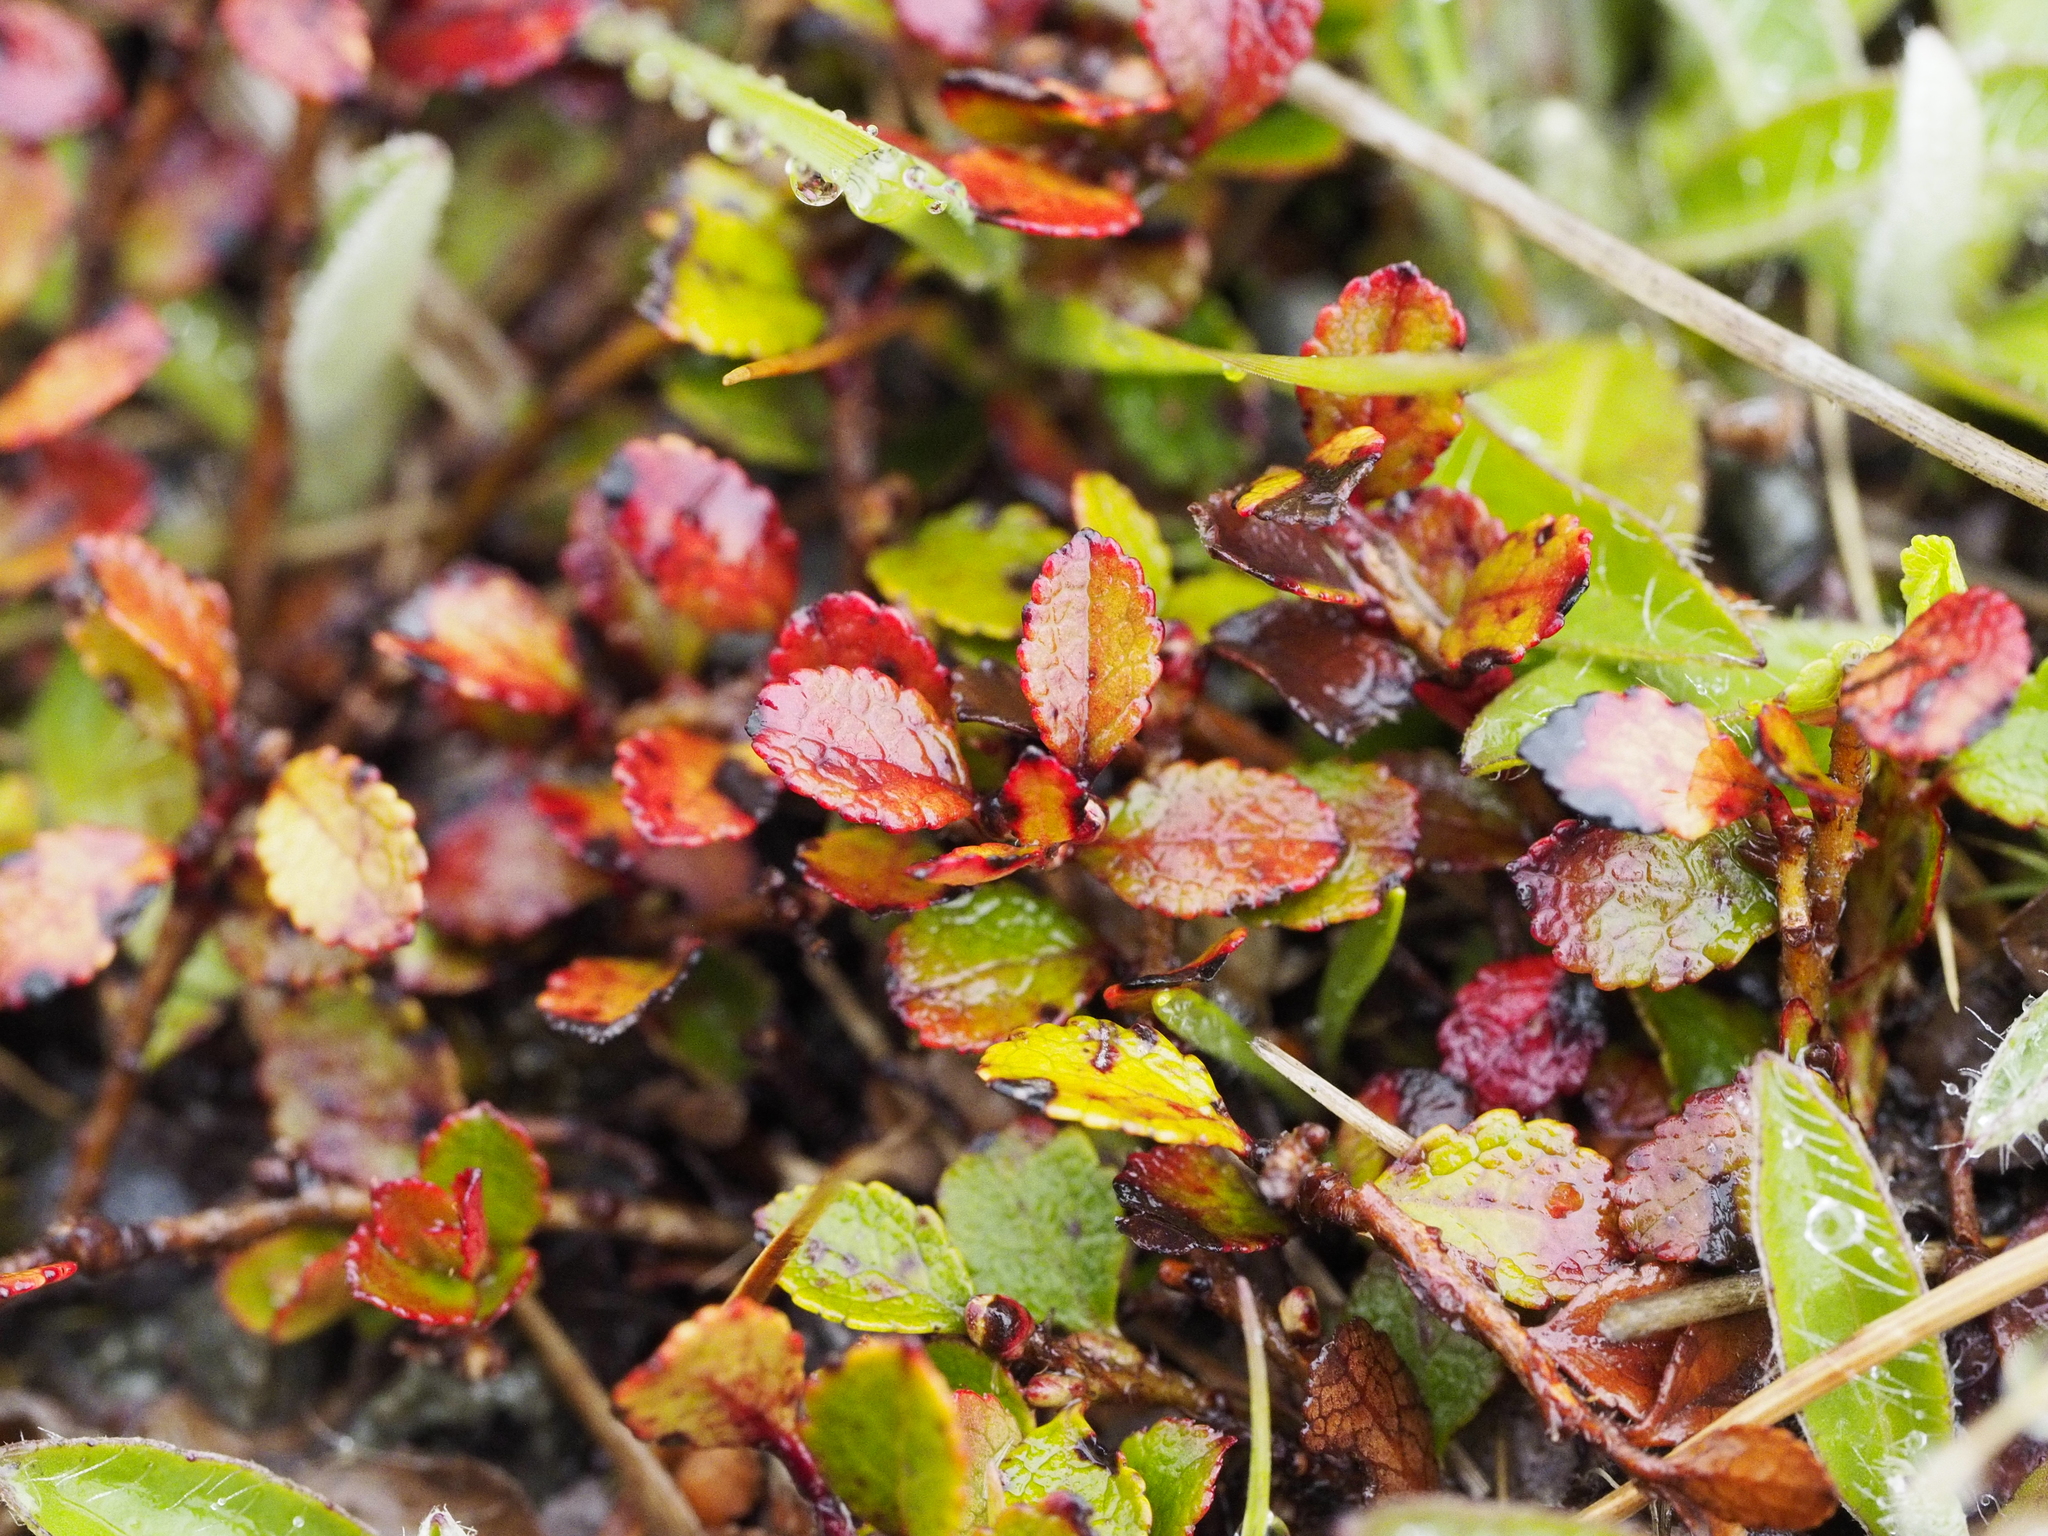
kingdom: Plantae
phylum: Tracheophyta
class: Magnoliopsida
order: Ericales
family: Ericaceae
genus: Gaultheria
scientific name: Gaultheria depressa
